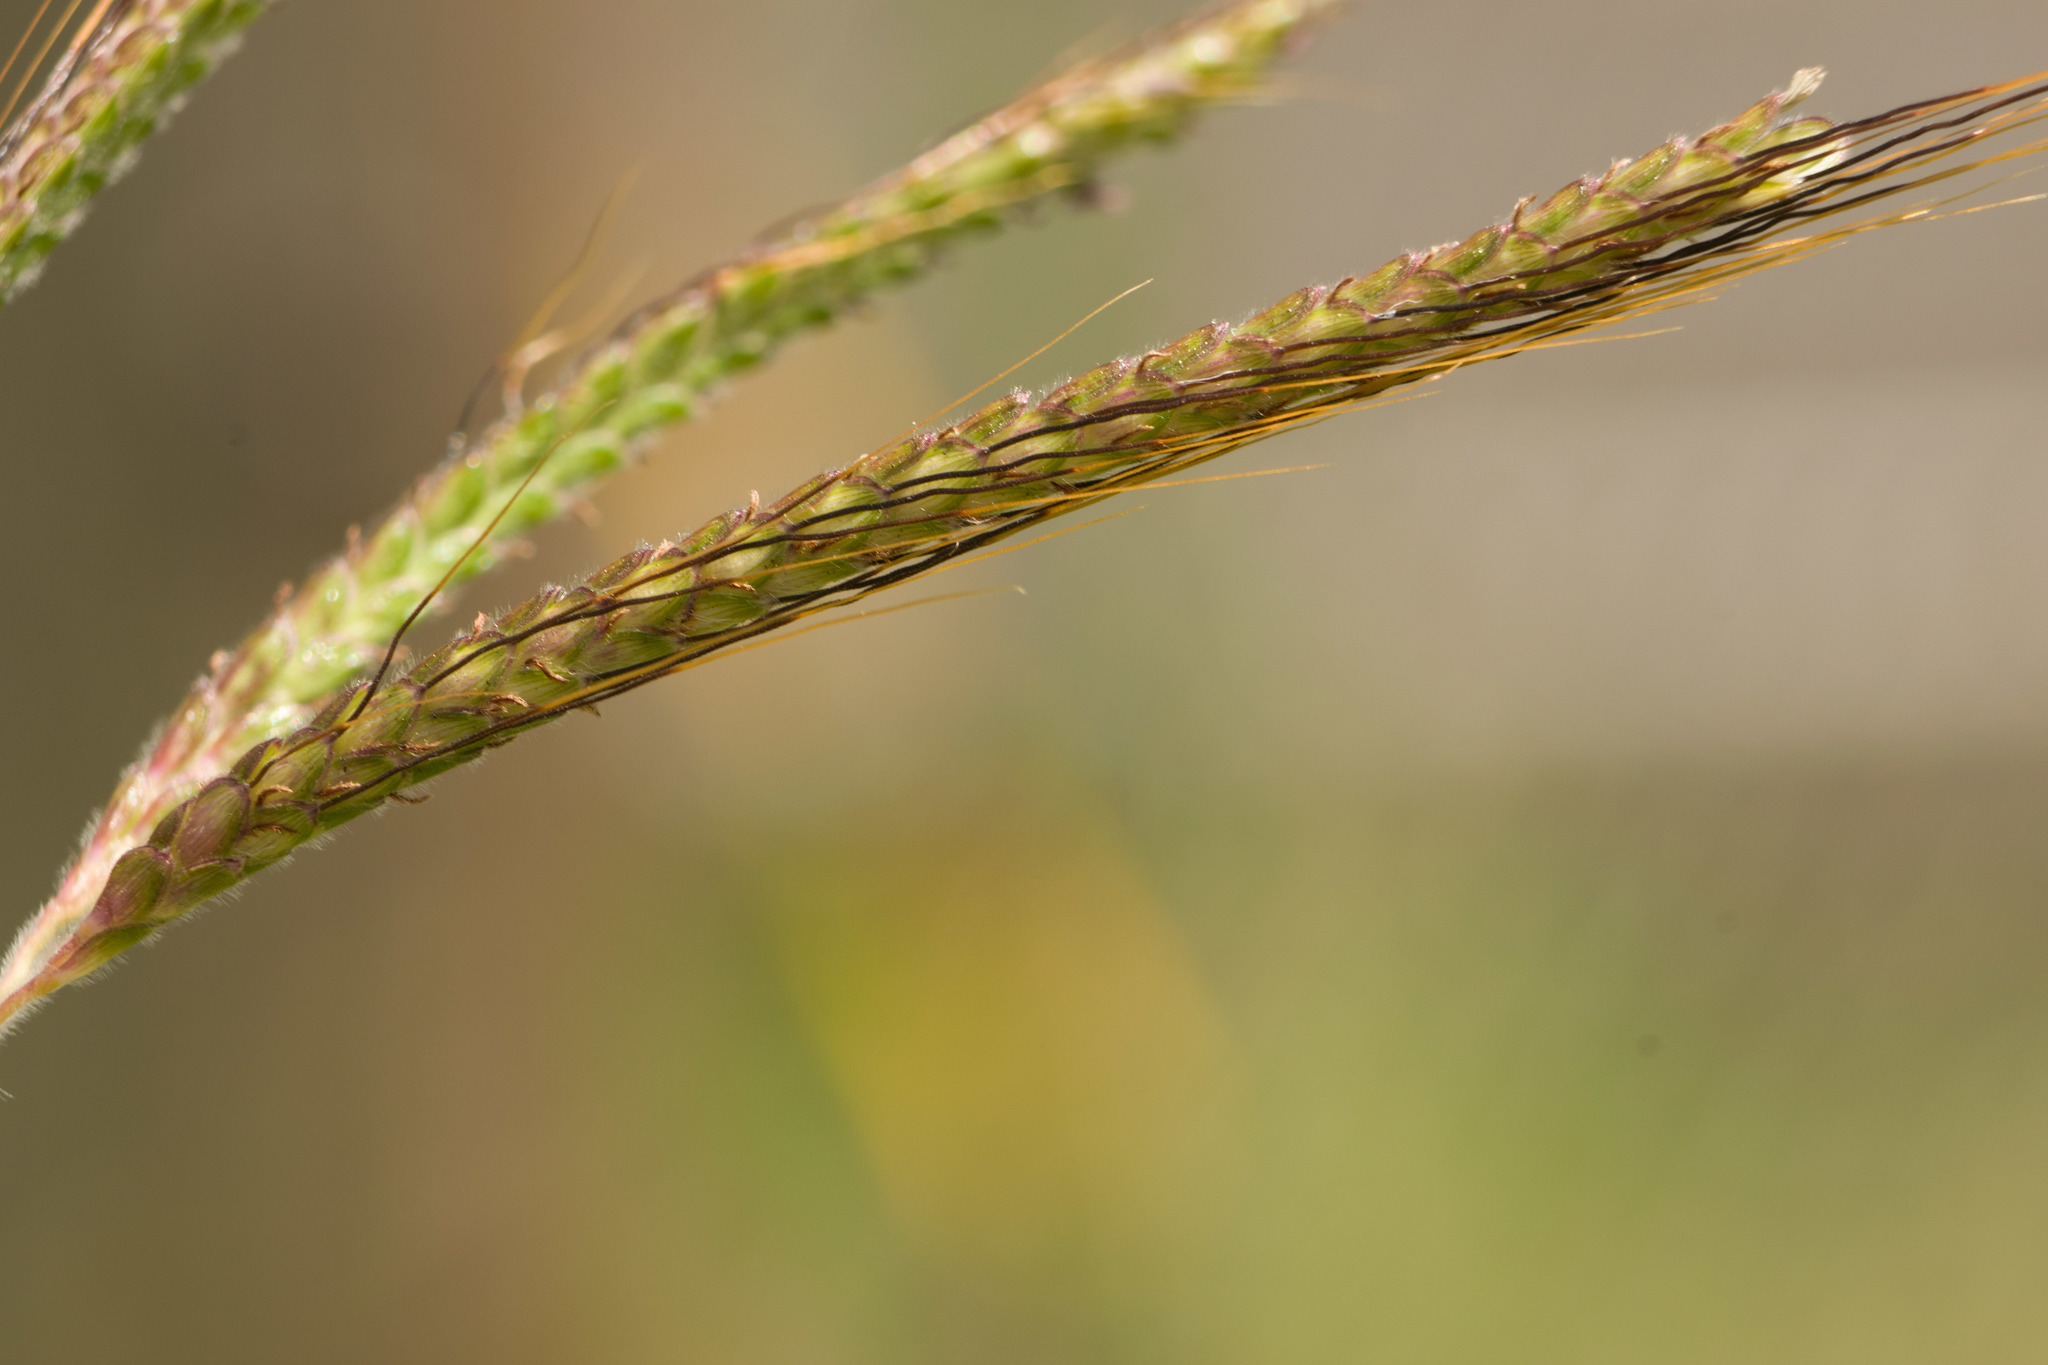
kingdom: Plantae
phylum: Tracheophyta
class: Liliopsida
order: Poales
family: Poaceae
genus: Dichanthium
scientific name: Dichanthium aristatum
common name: Angleton bluestem
